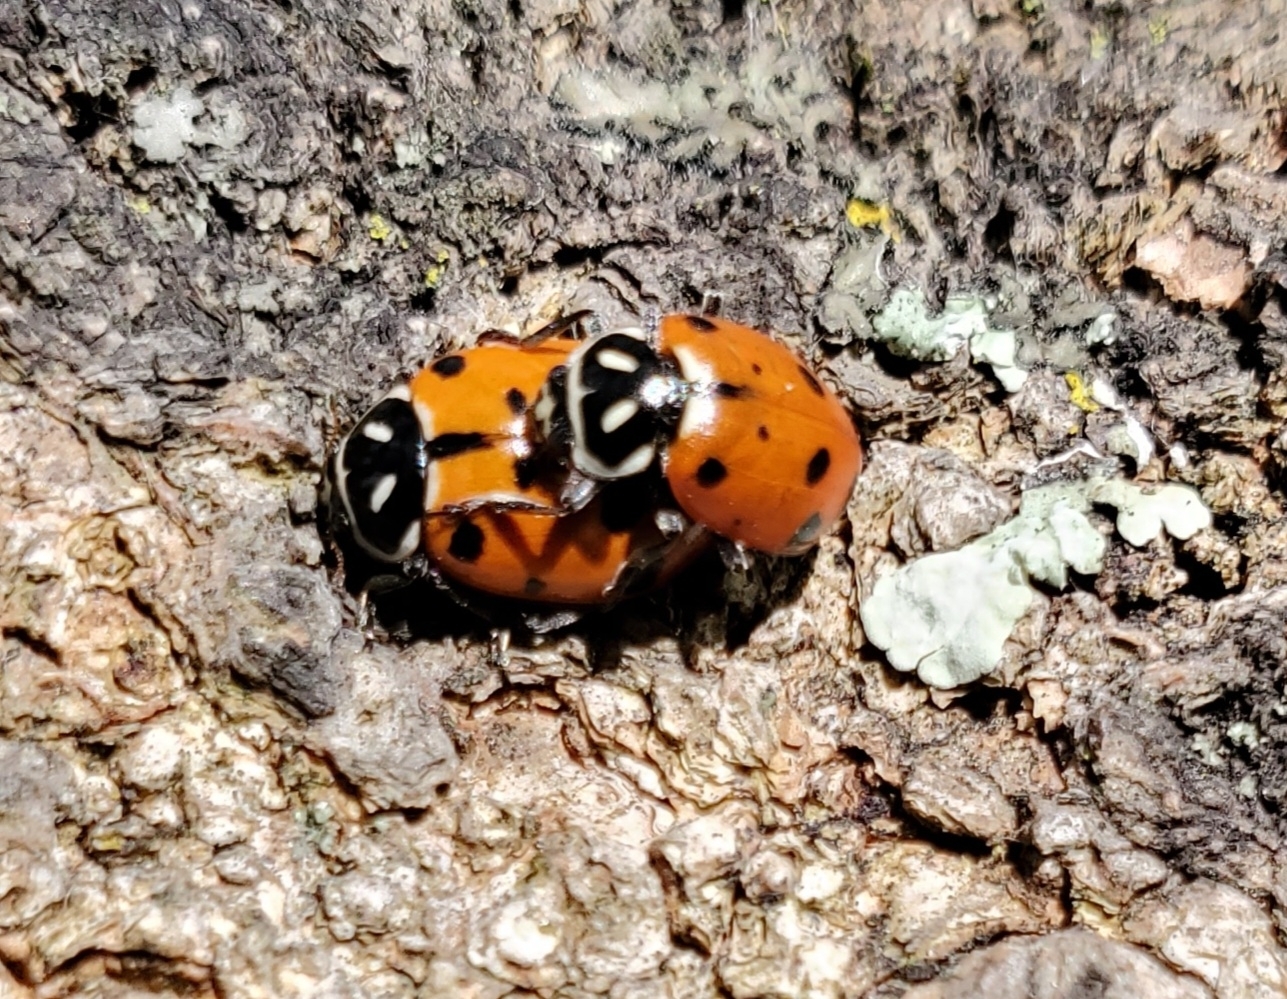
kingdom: Animalia
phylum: Arthropoda
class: Insecta
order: Coleoptera
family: Coccinellidae
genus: Hippodamia
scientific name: Hippodamia convergens
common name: Convergent lady beetle
